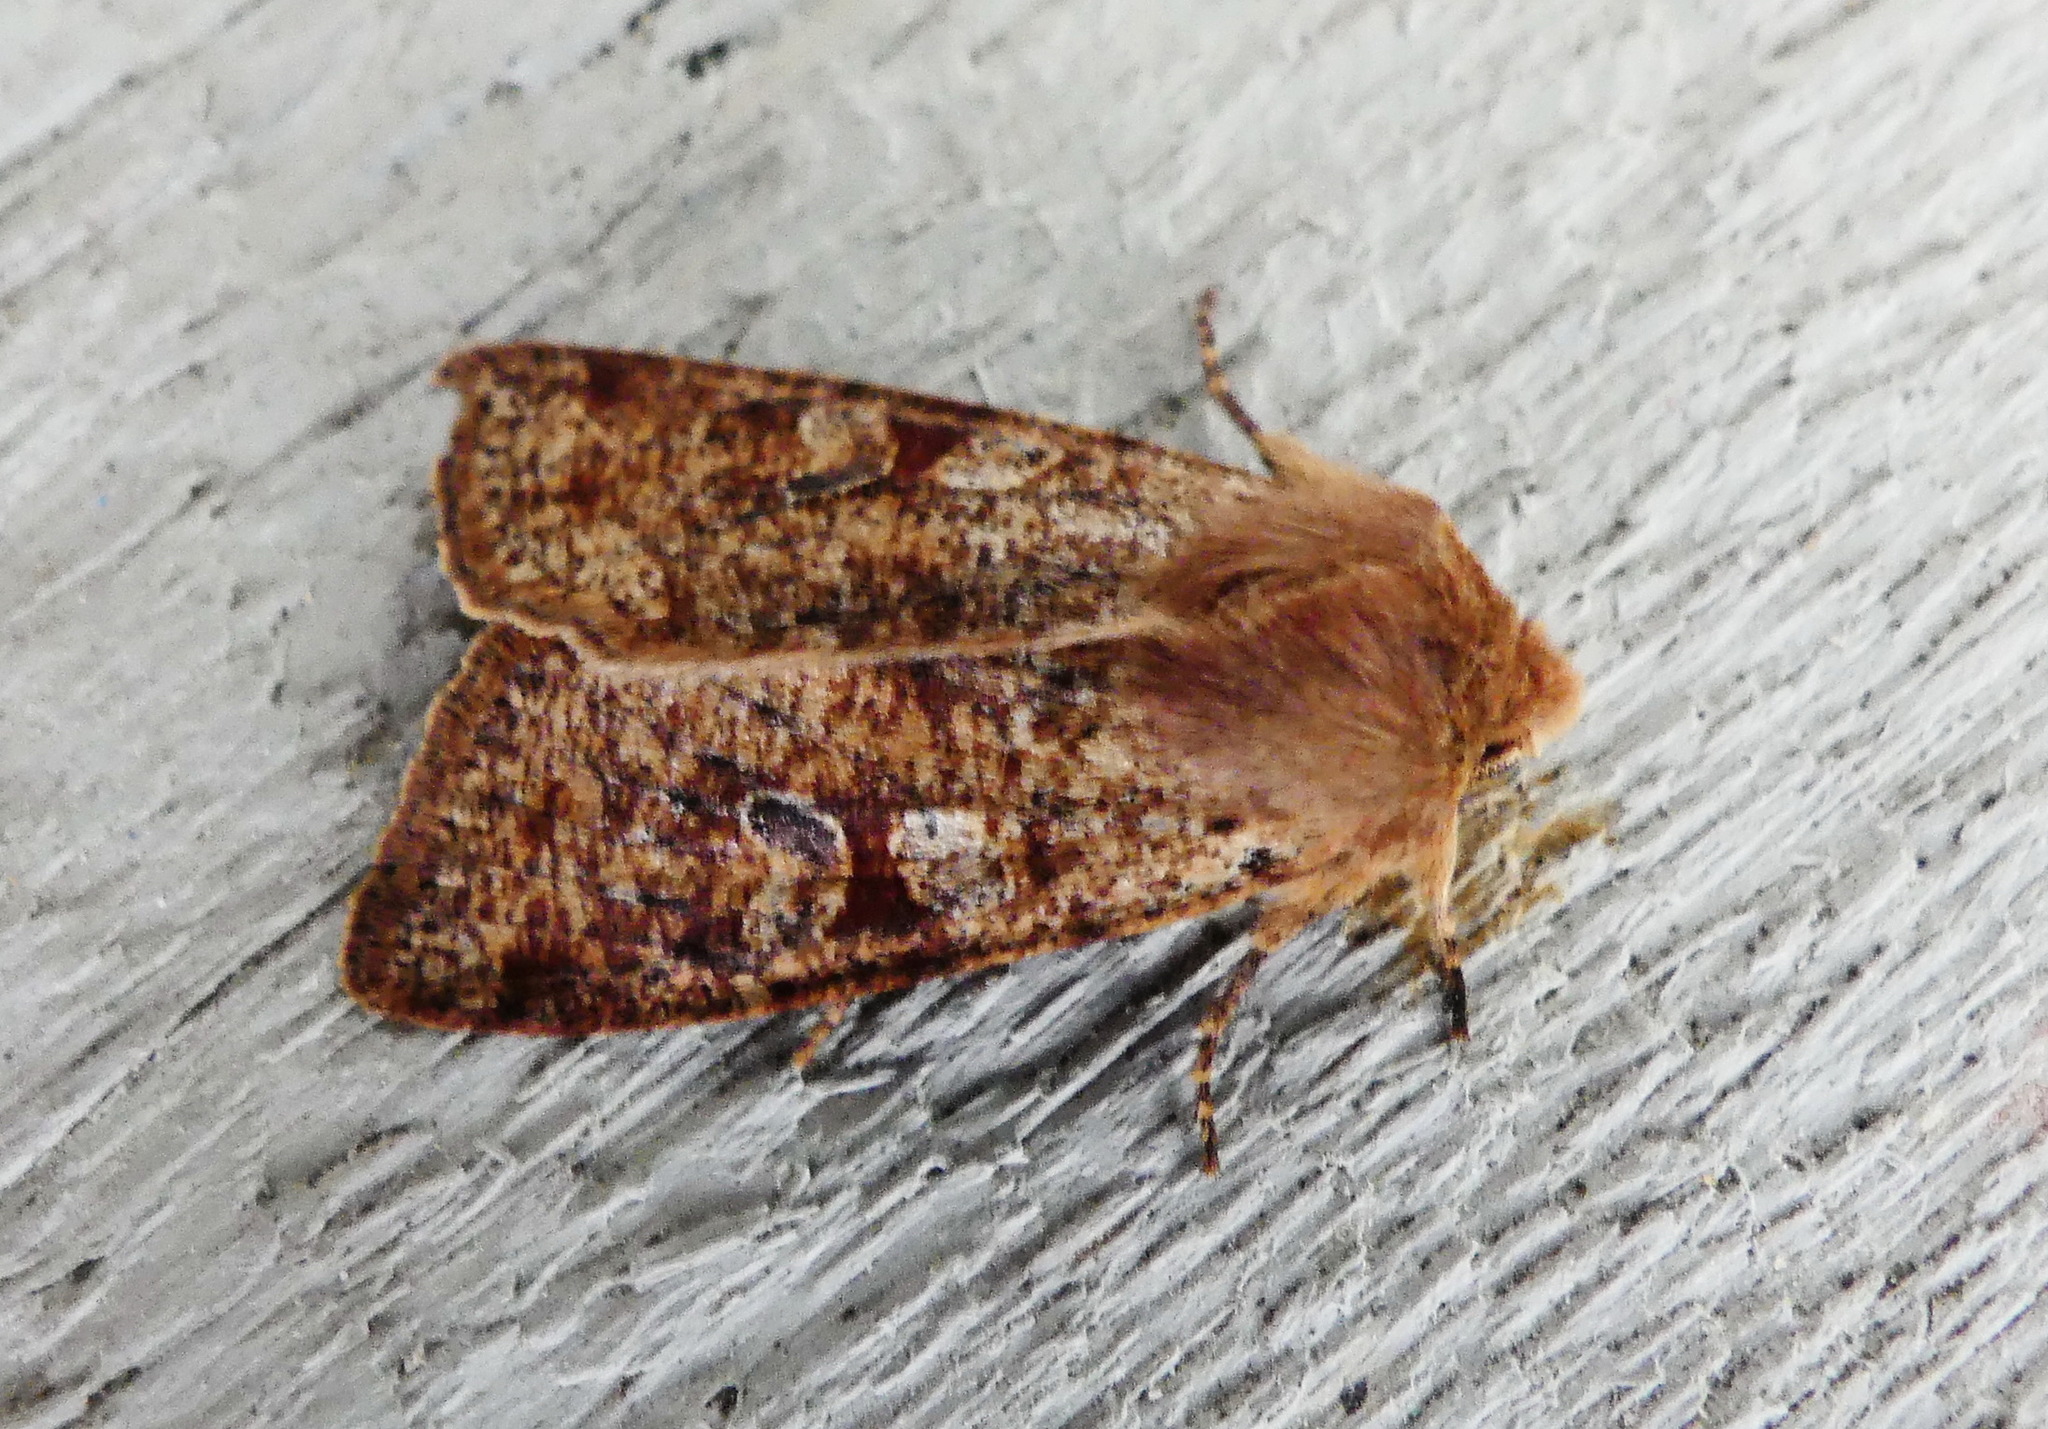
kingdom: Animalia
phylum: Arthropoda
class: Insecta
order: Lepidoptera
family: Noctuidae
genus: Orthosia
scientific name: Orthosia rubescens
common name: Ruby quaker
